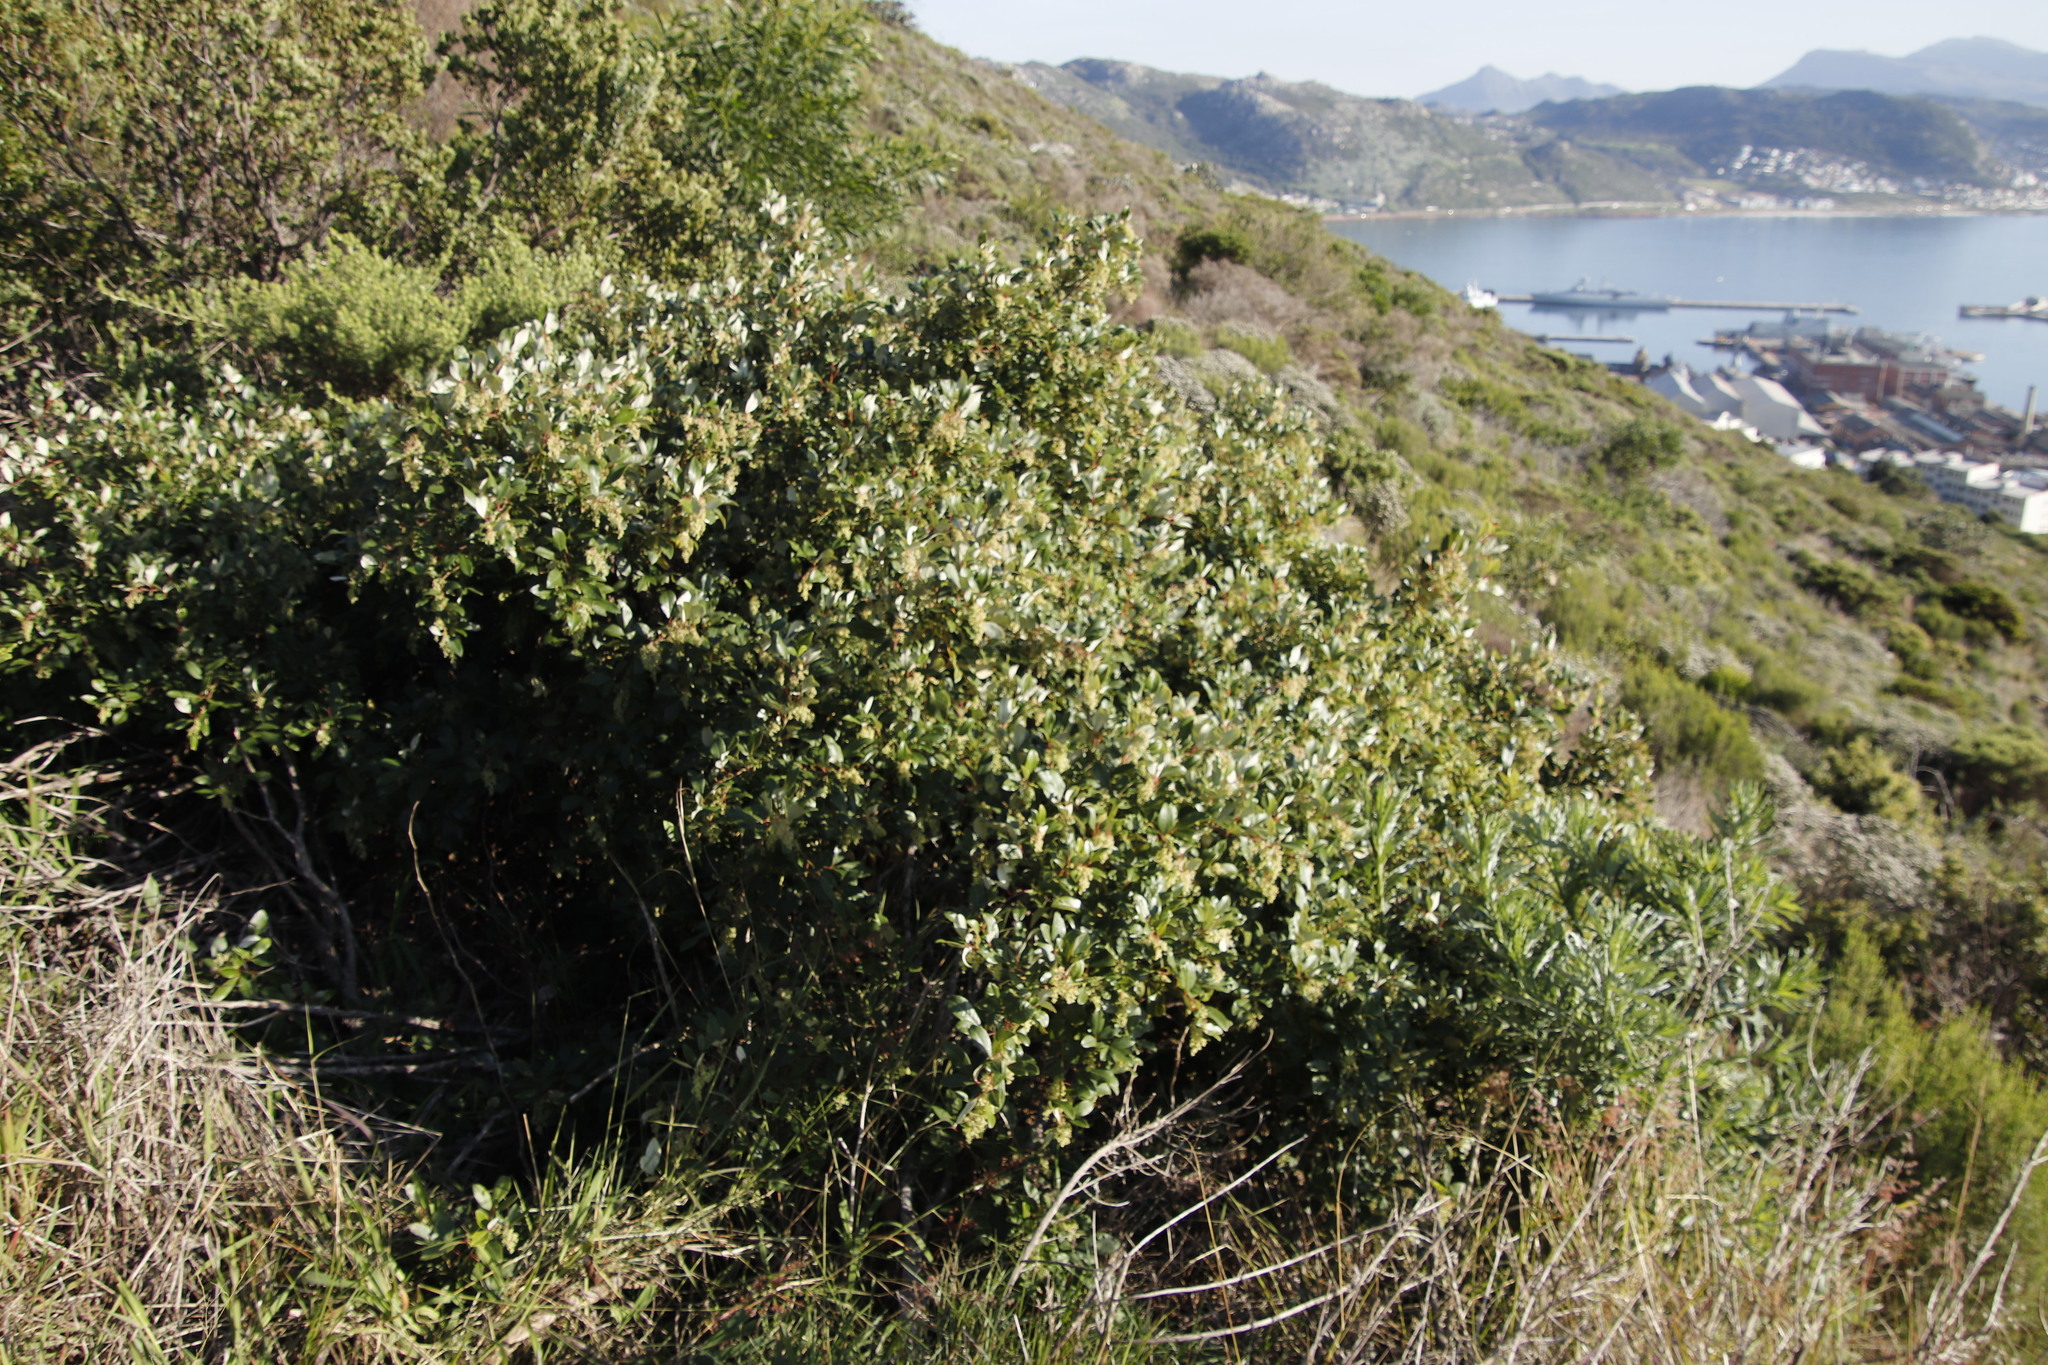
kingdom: Plantae
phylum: Tracheophyta
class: Magnoliopsida
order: Sapindales
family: Anacardiaceae
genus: Searsia
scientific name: Searsia tomentosa
